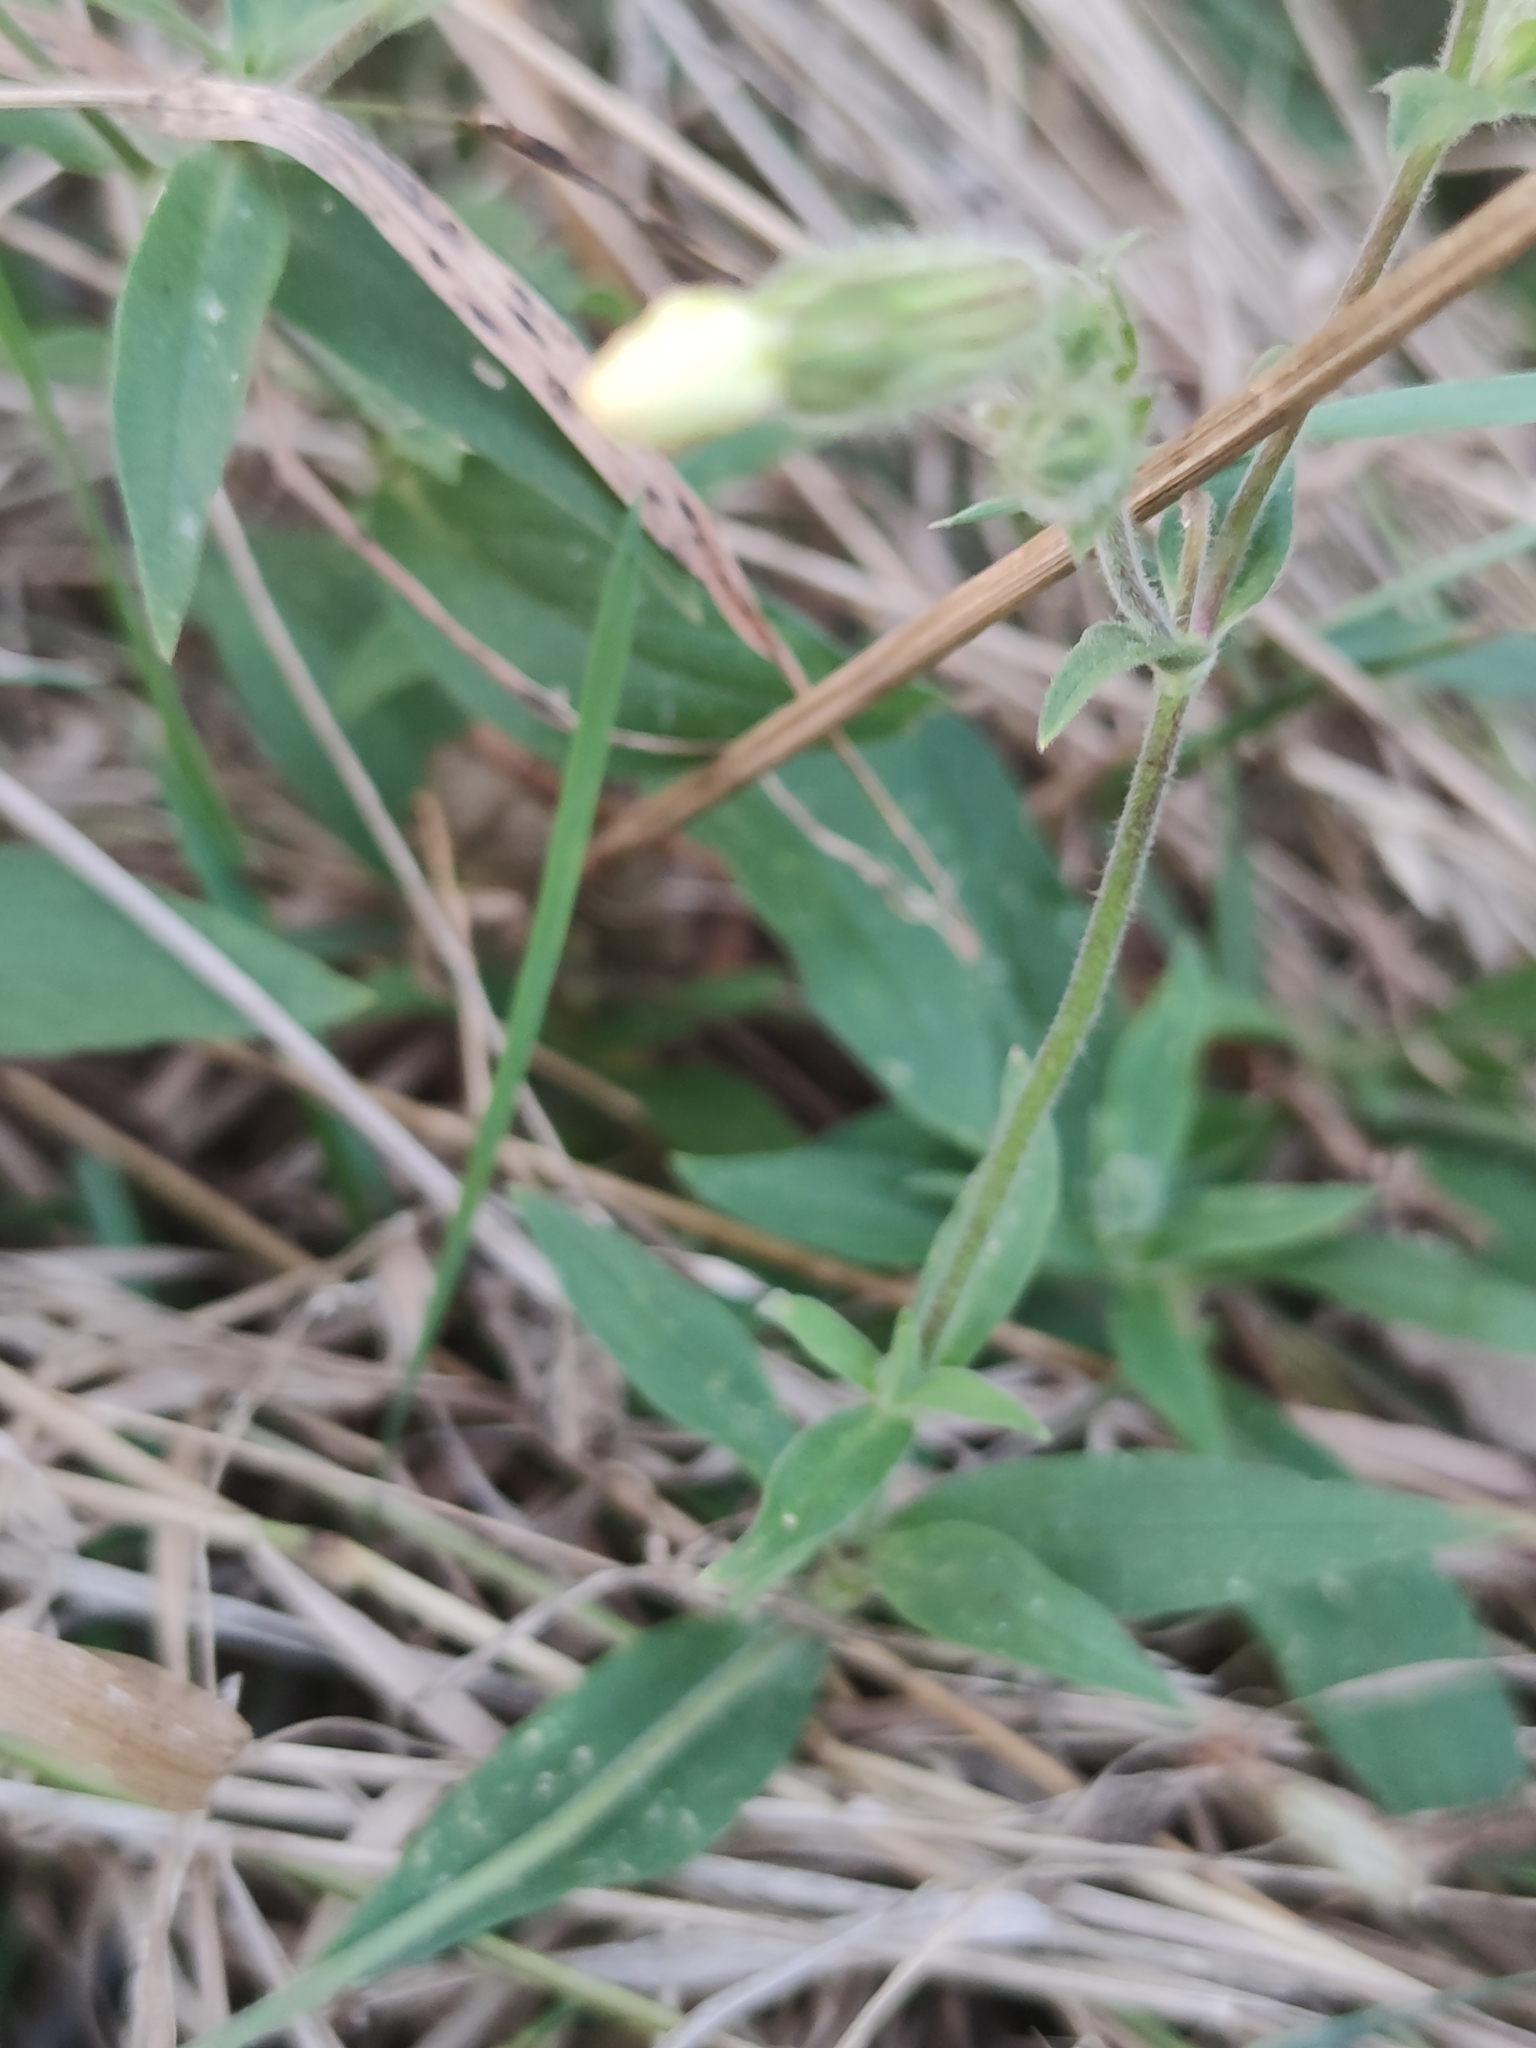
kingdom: Plantae
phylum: Tracheophyta
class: Magnoliopsida
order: Caryophyllales
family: Caryophyllaceae
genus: Silene
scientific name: Silene latifolia
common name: White campion
